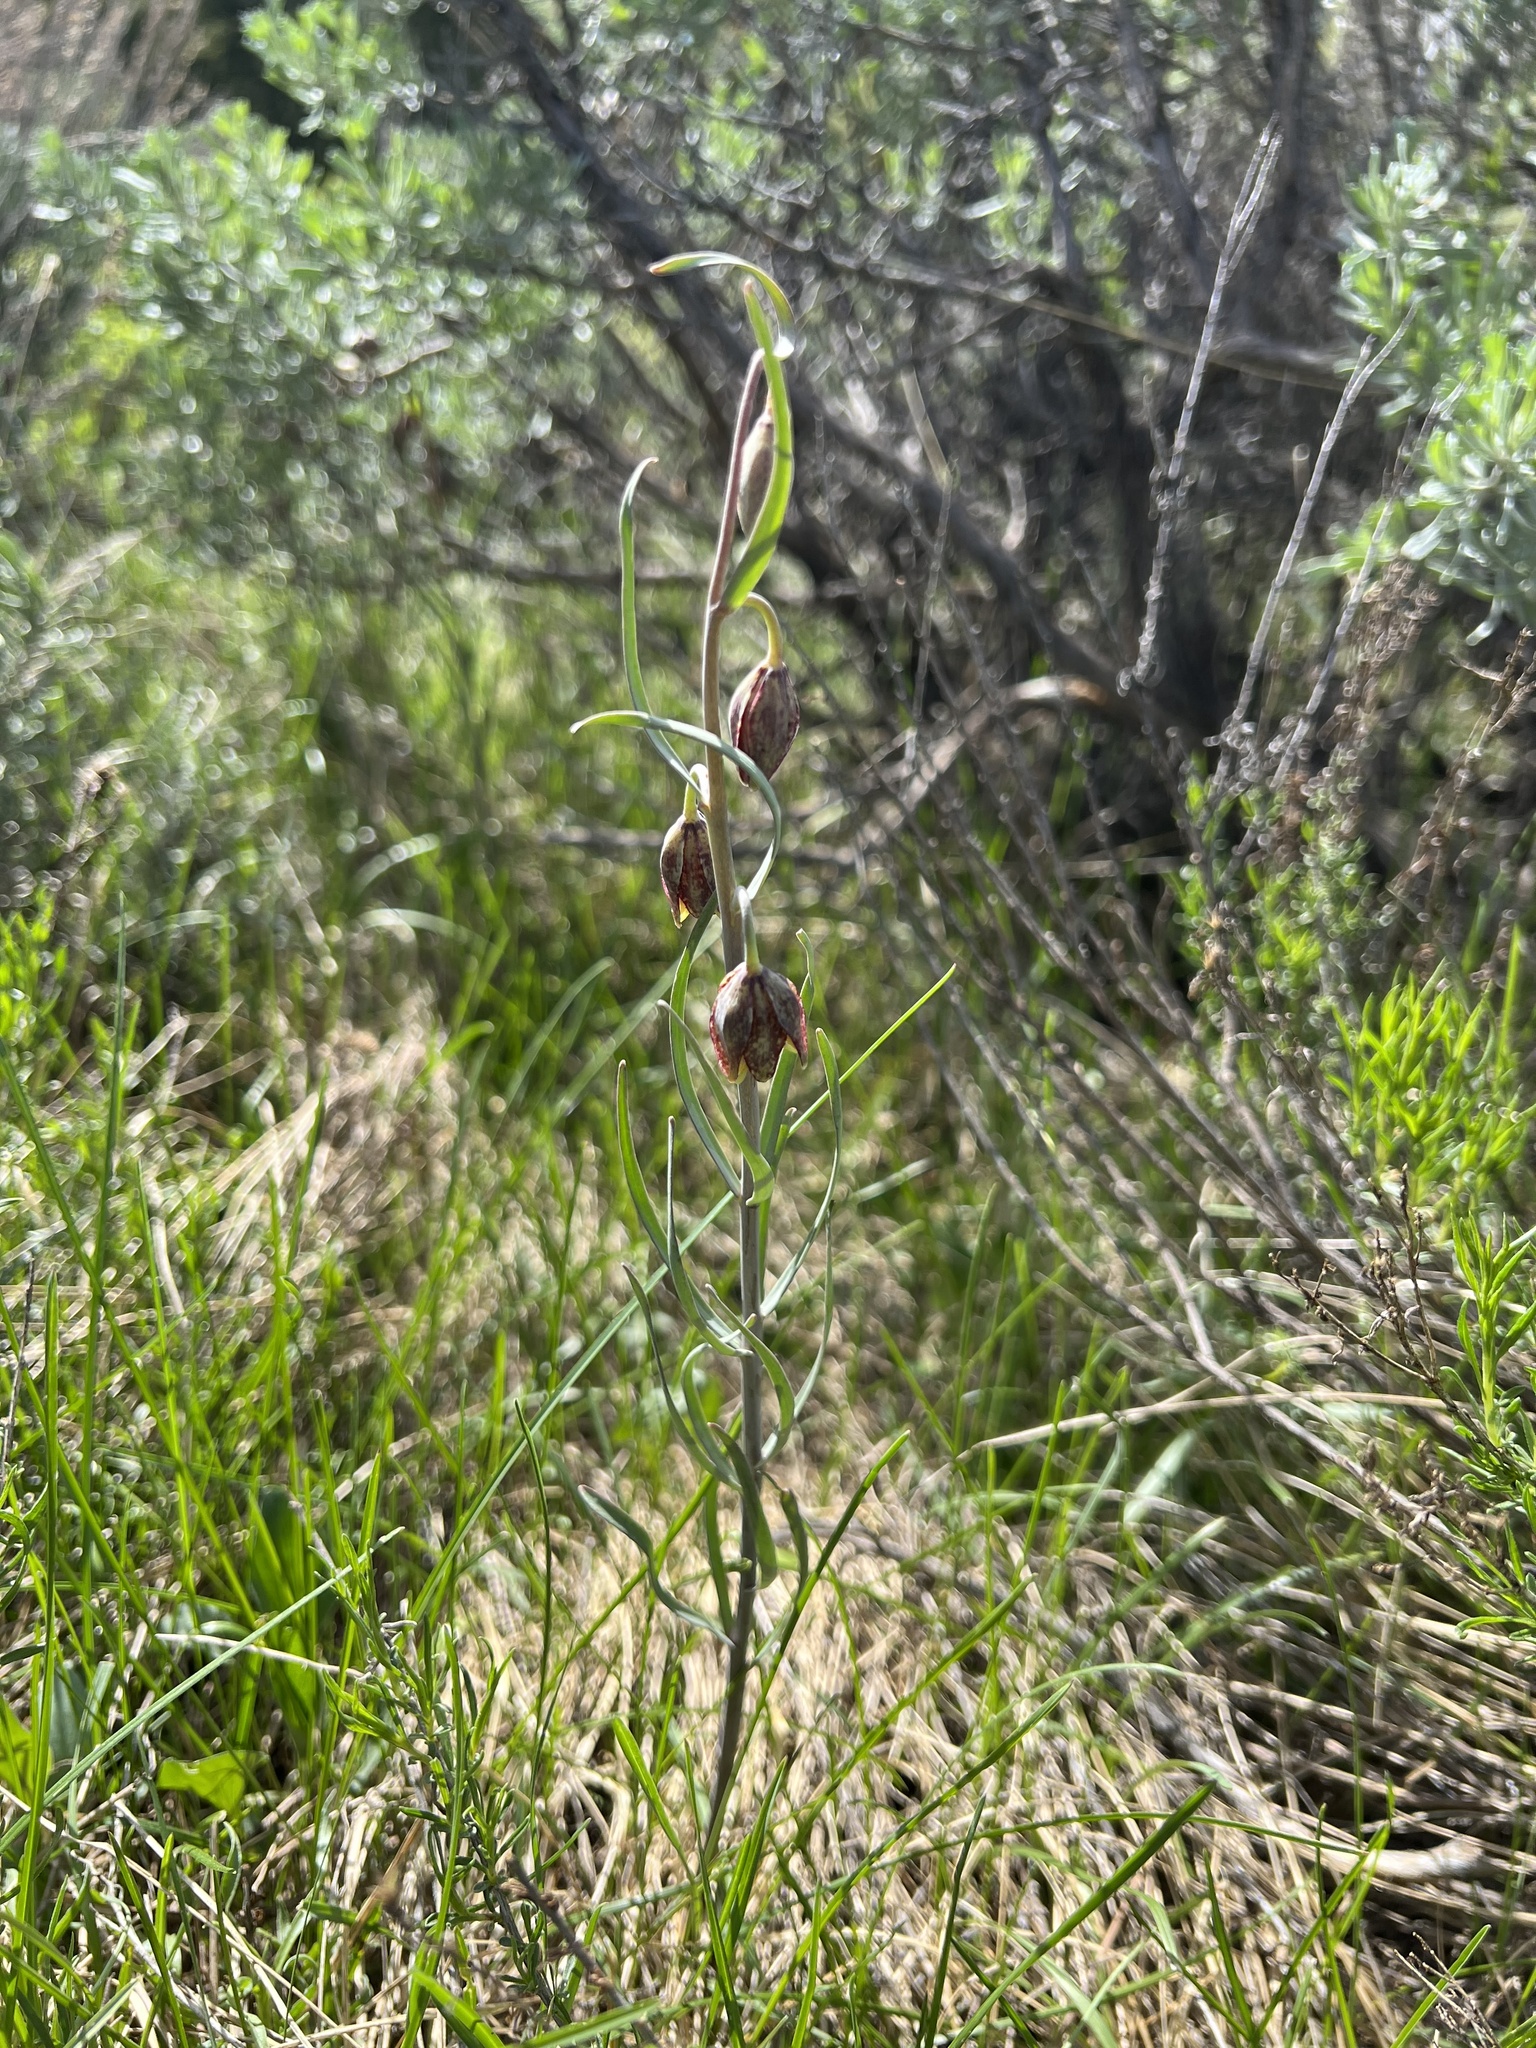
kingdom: Plantae
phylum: Tracheophyta
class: Liliopsida
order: Liliales
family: Liliaceae
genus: Fritillaria
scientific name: Fritillaria atropurpurea
